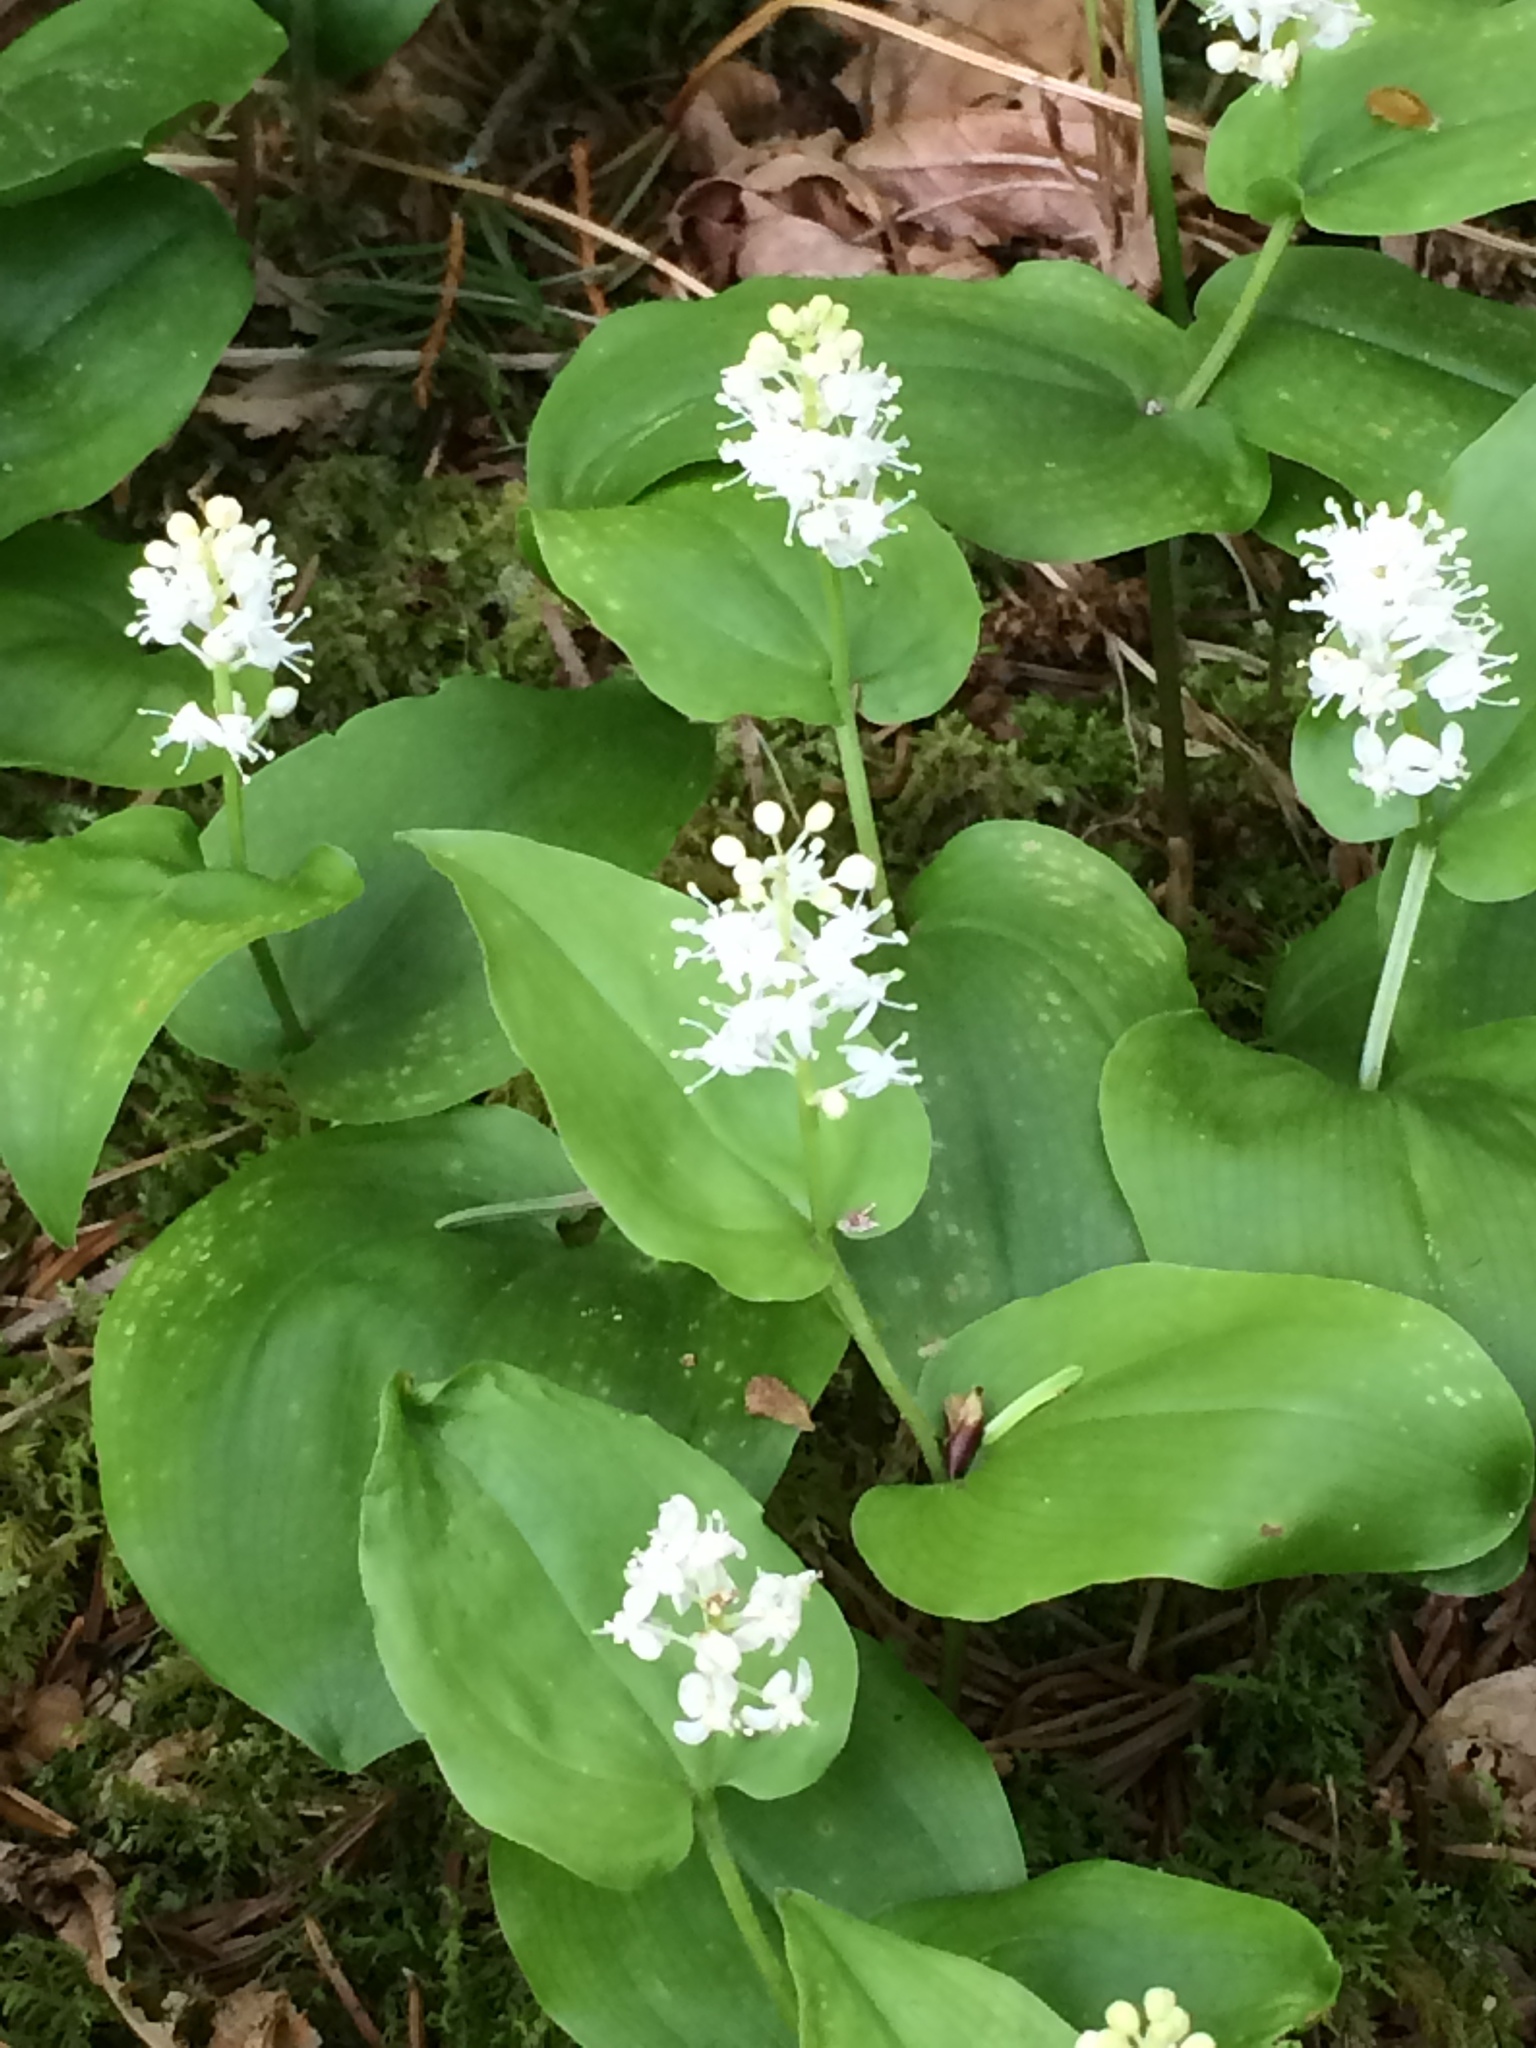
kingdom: Plantae
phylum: Tracheophyta
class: Liliopsida
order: Asparagales
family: Asparagaceae
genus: Maianthemum
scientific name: Maianthemum canadense
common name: False lily-of-the-valley
